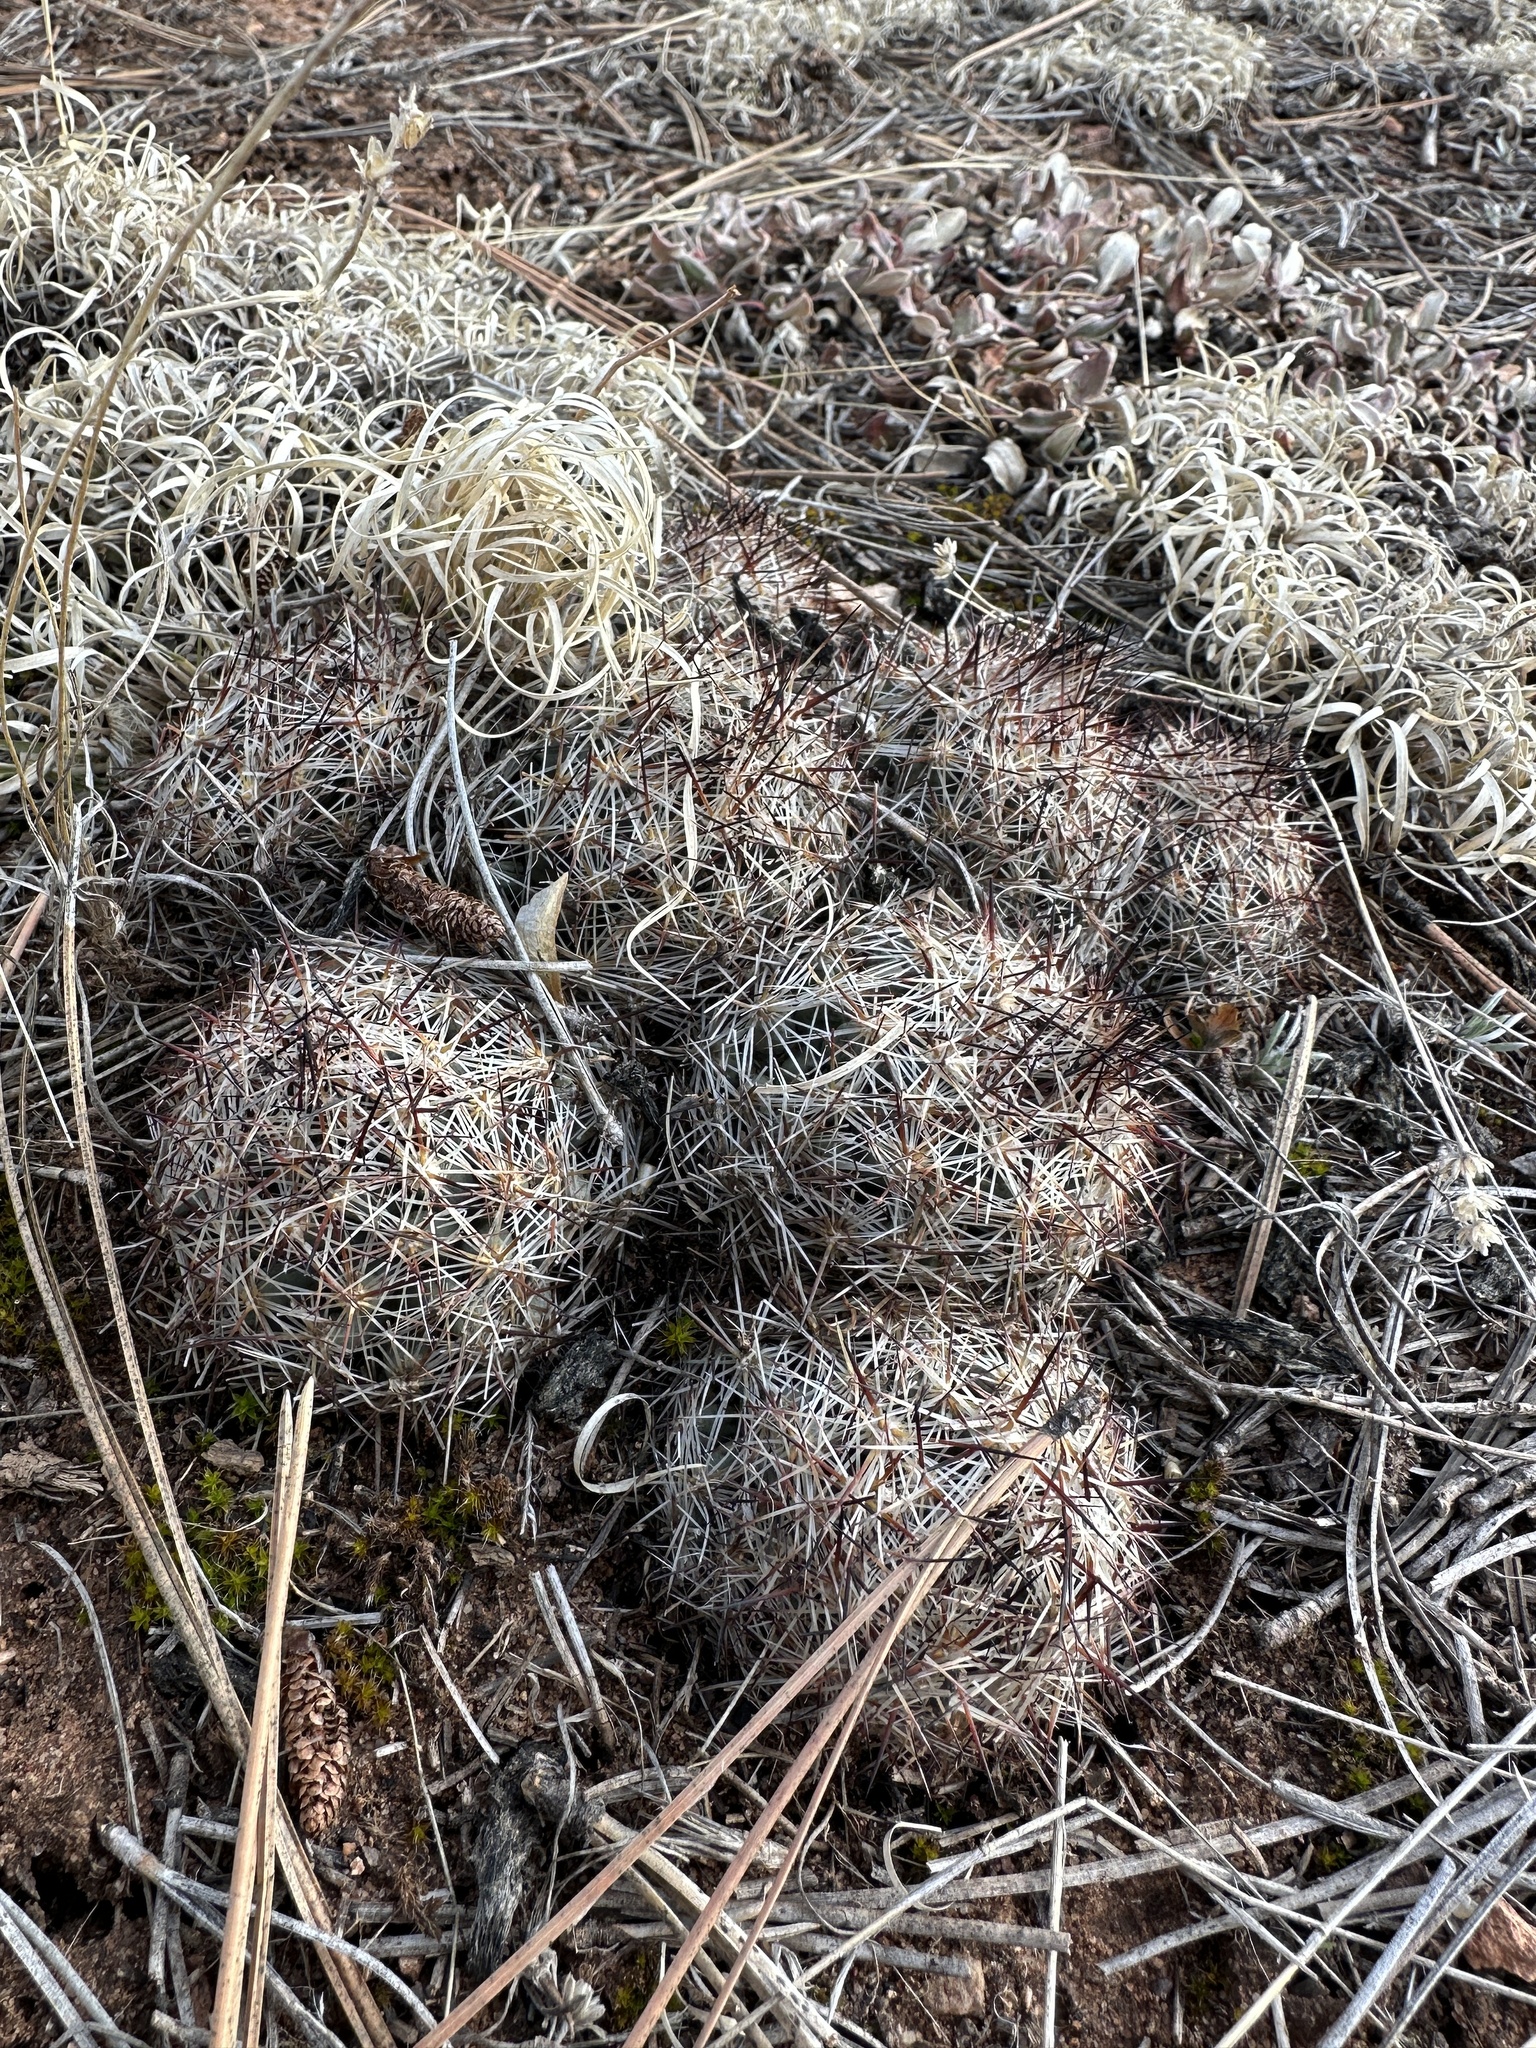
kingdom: Plantae
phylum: Tracheophyta
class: Magnoliopsida
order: Caryophyllales
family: Cactaceae
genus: Pelecyphora
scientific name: Pelecyphora vivipara
